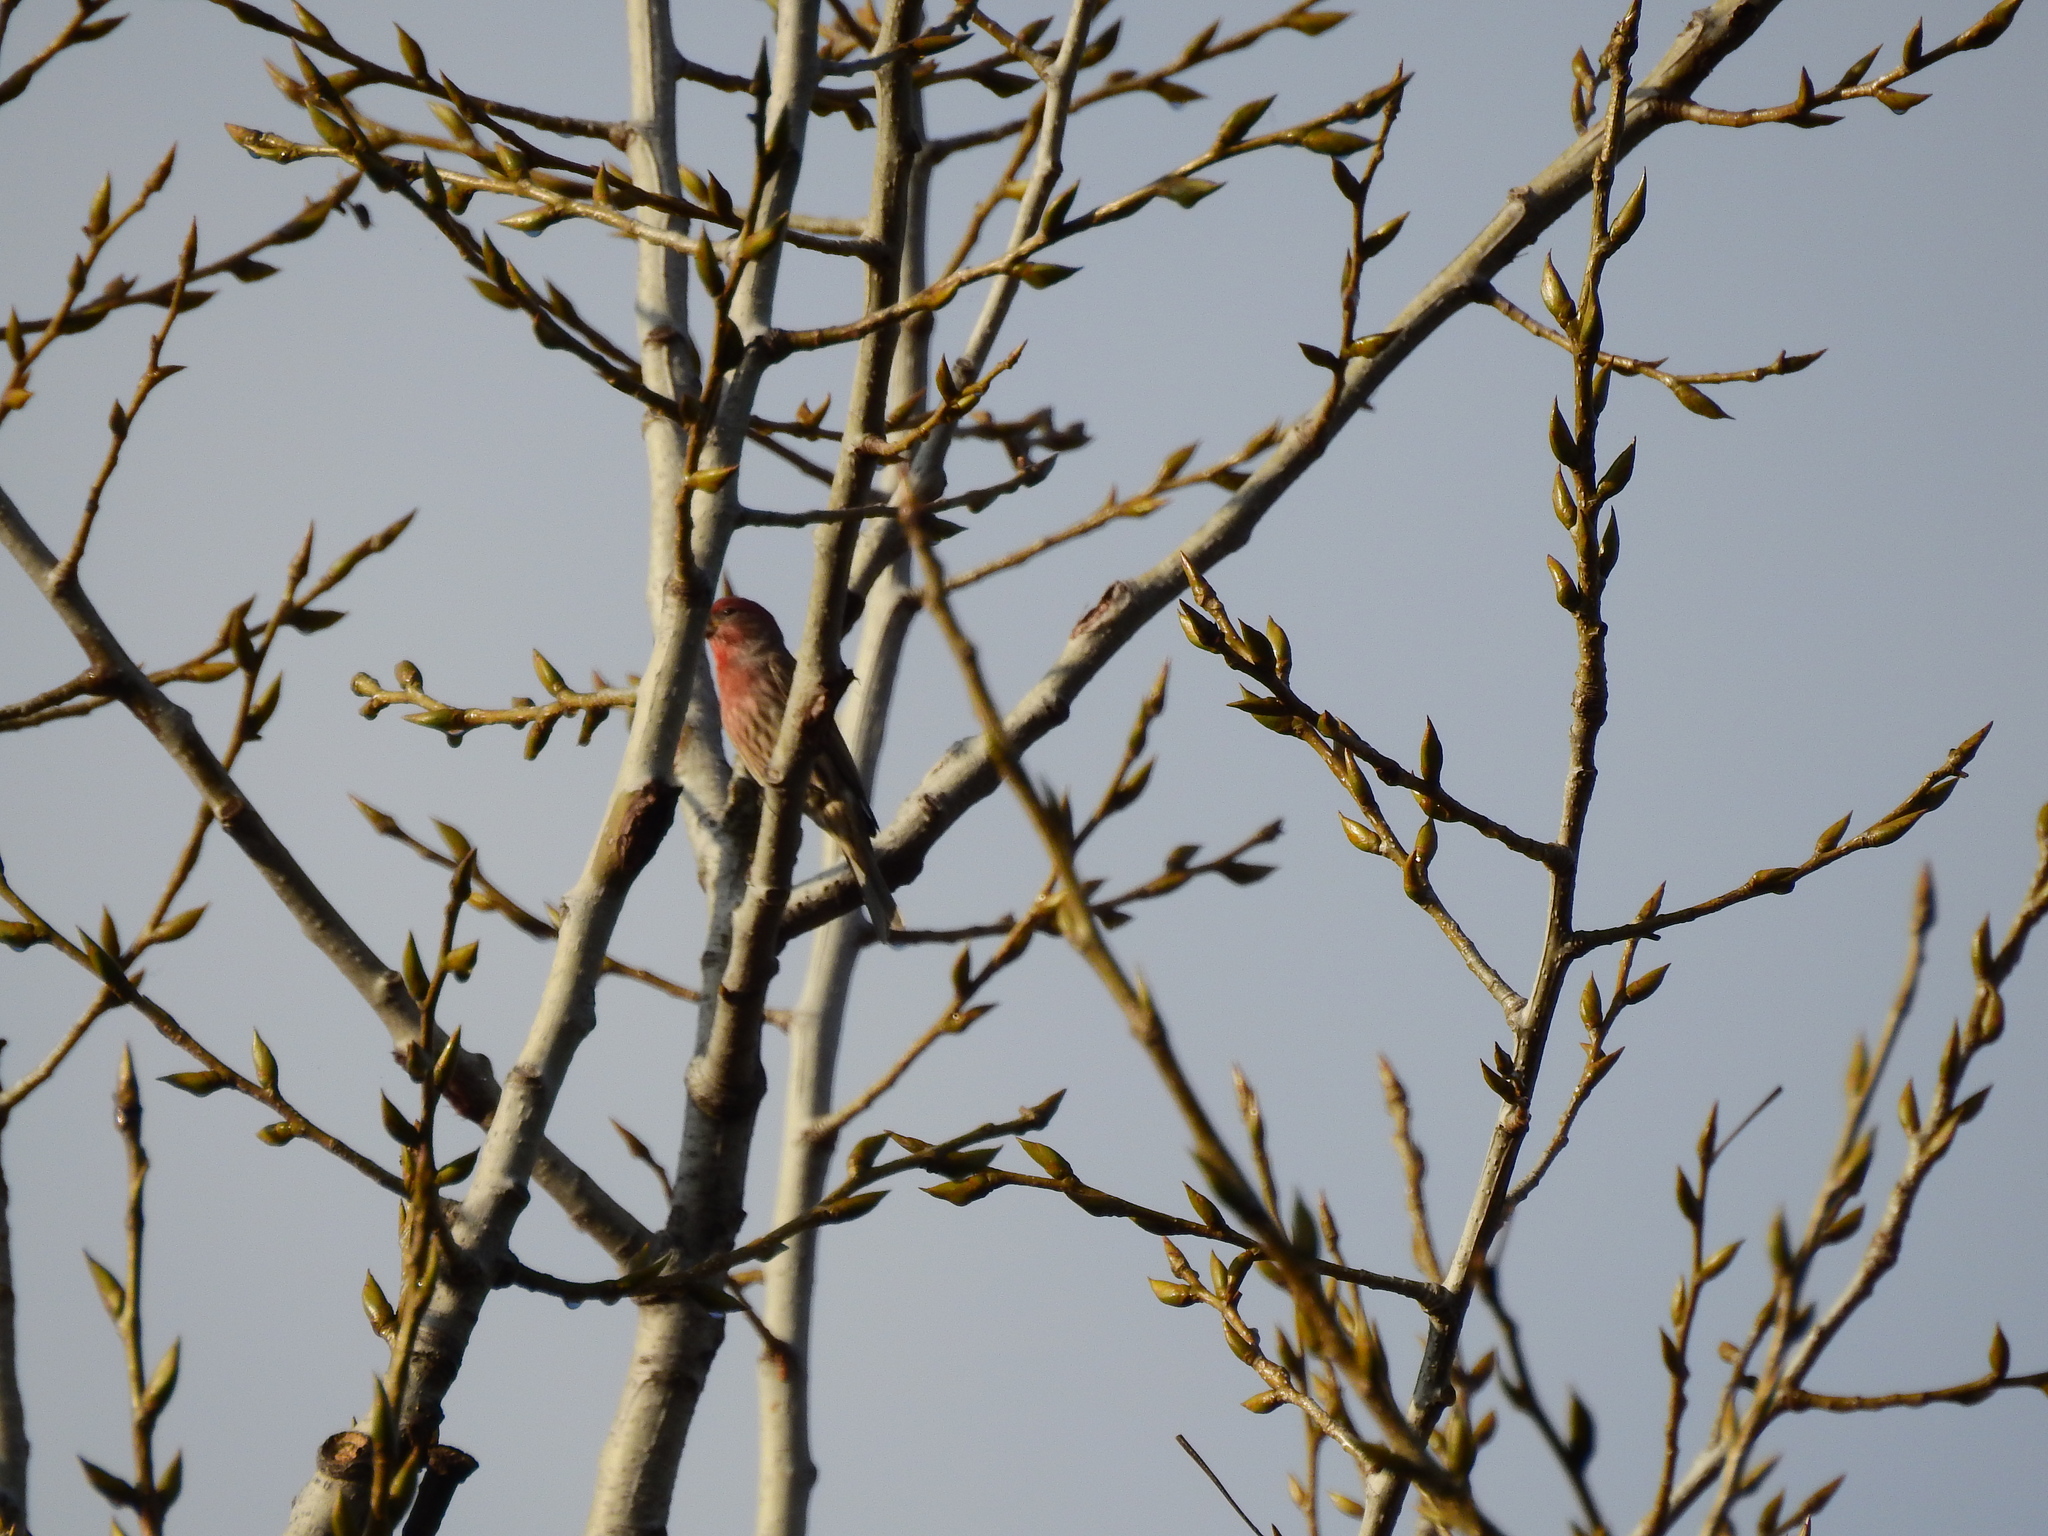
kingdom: Animalia
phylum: Chordata
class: Aves
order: Passeriformes
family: Fringillidae
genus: Haemorhous
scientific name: Haemorhous mexicanus
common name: House finch
